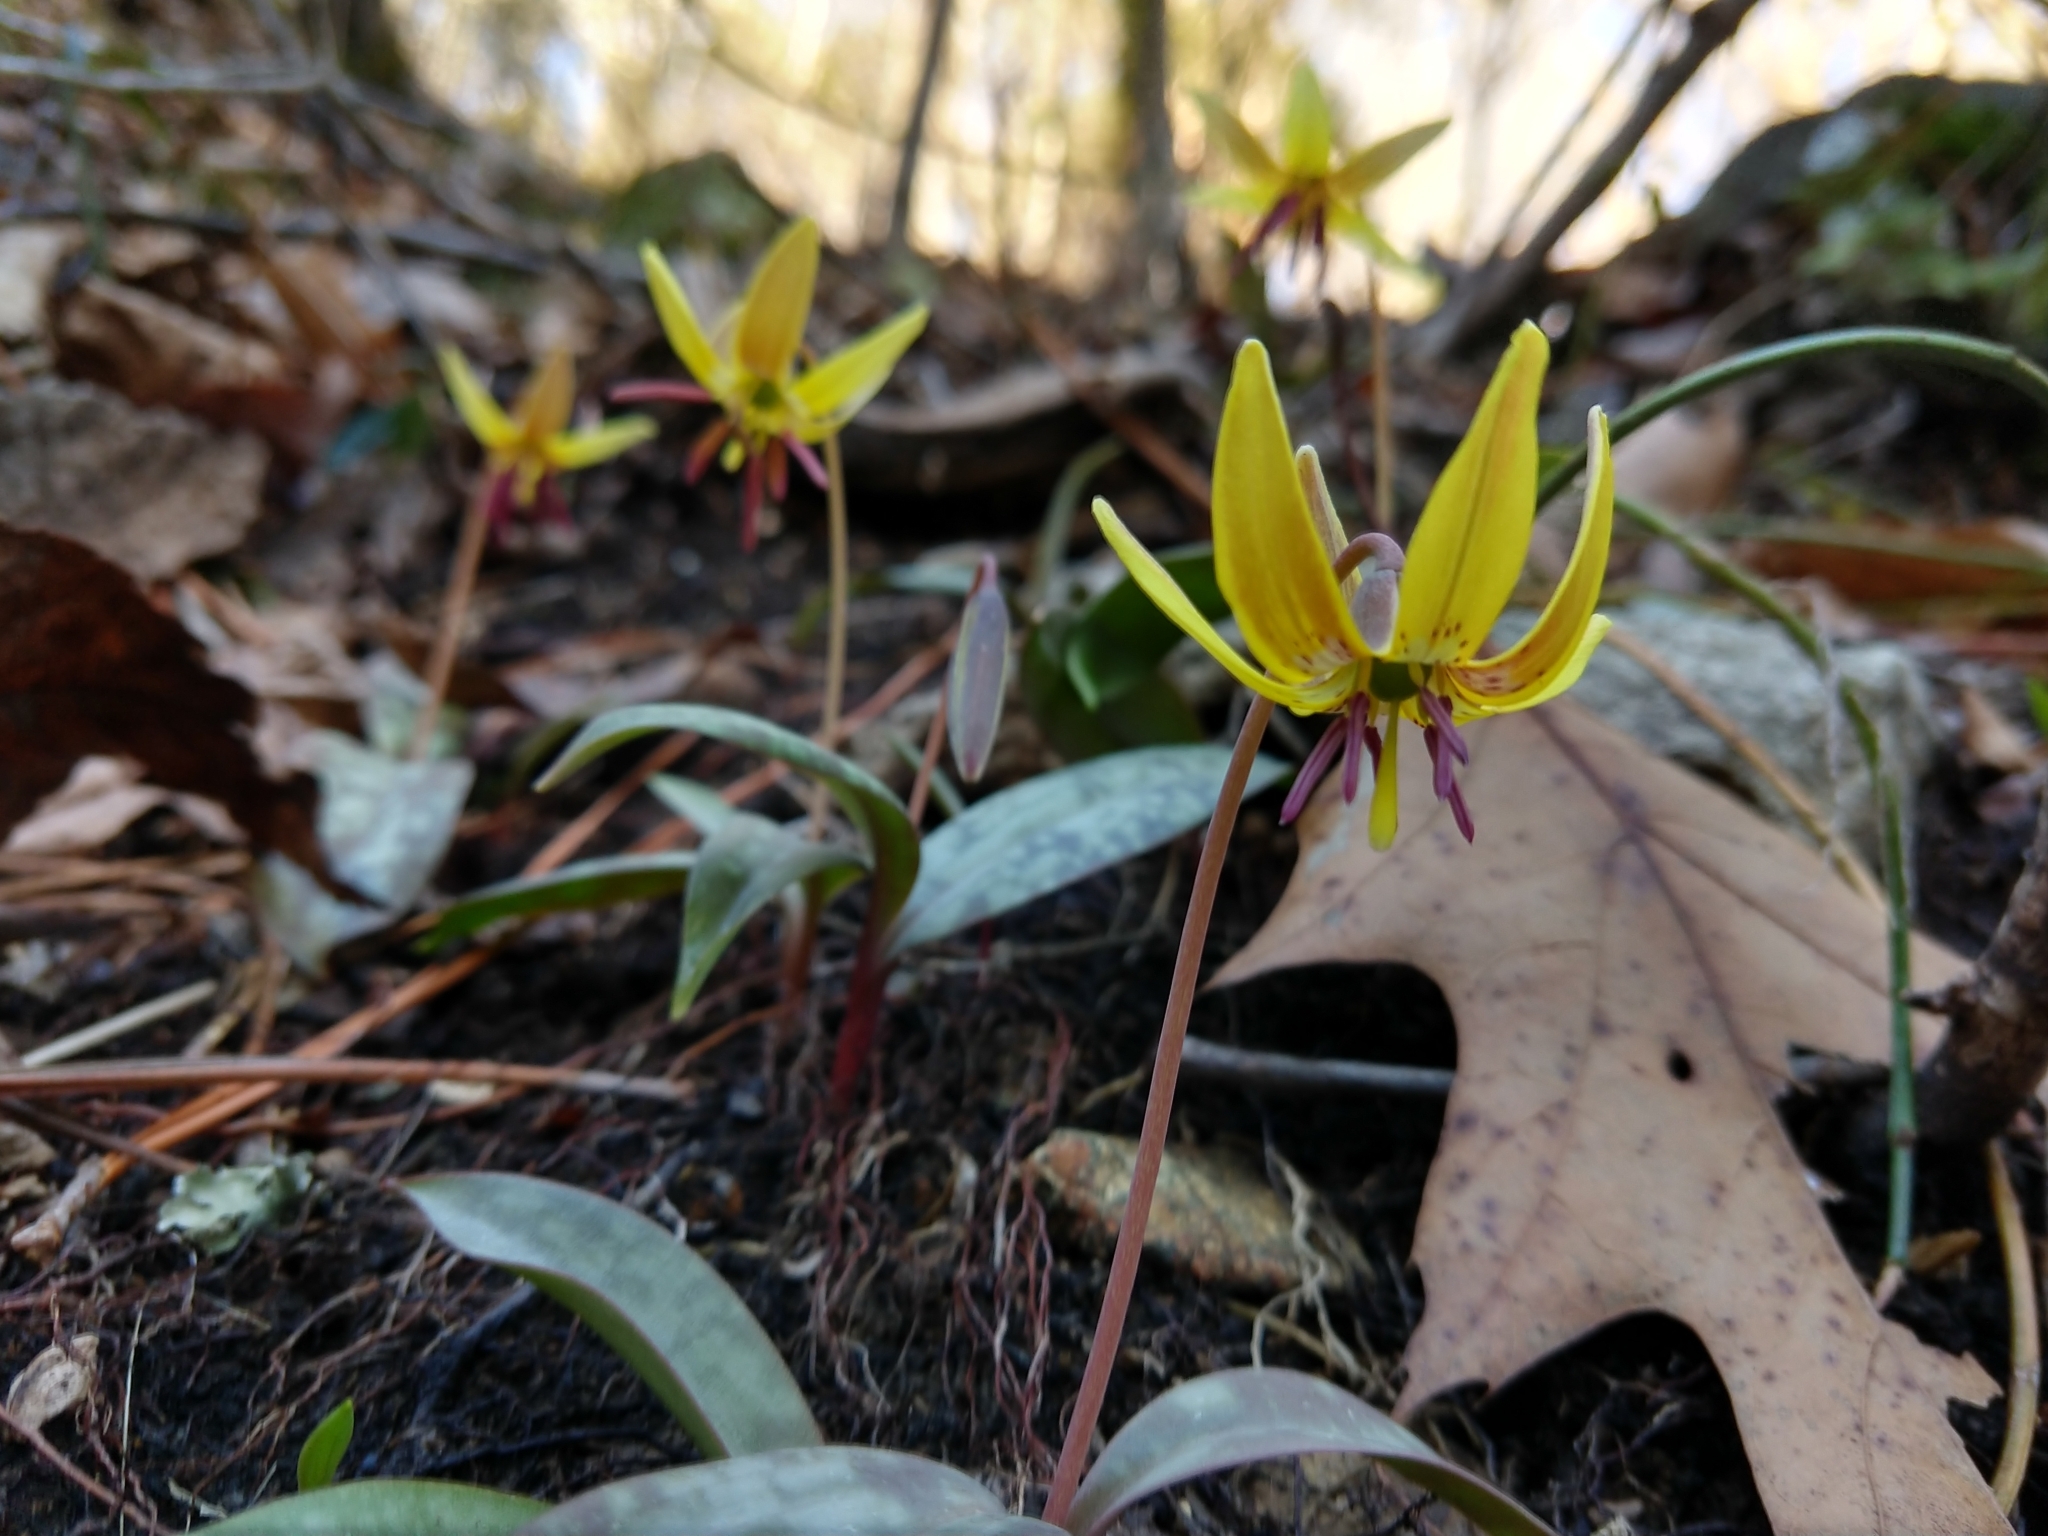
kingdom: Plantae
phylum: Tracheophyta
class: Liliopsida
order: Liliales
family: Liliaceae
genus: Erythronium
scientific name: Erythronium umbilicatum
